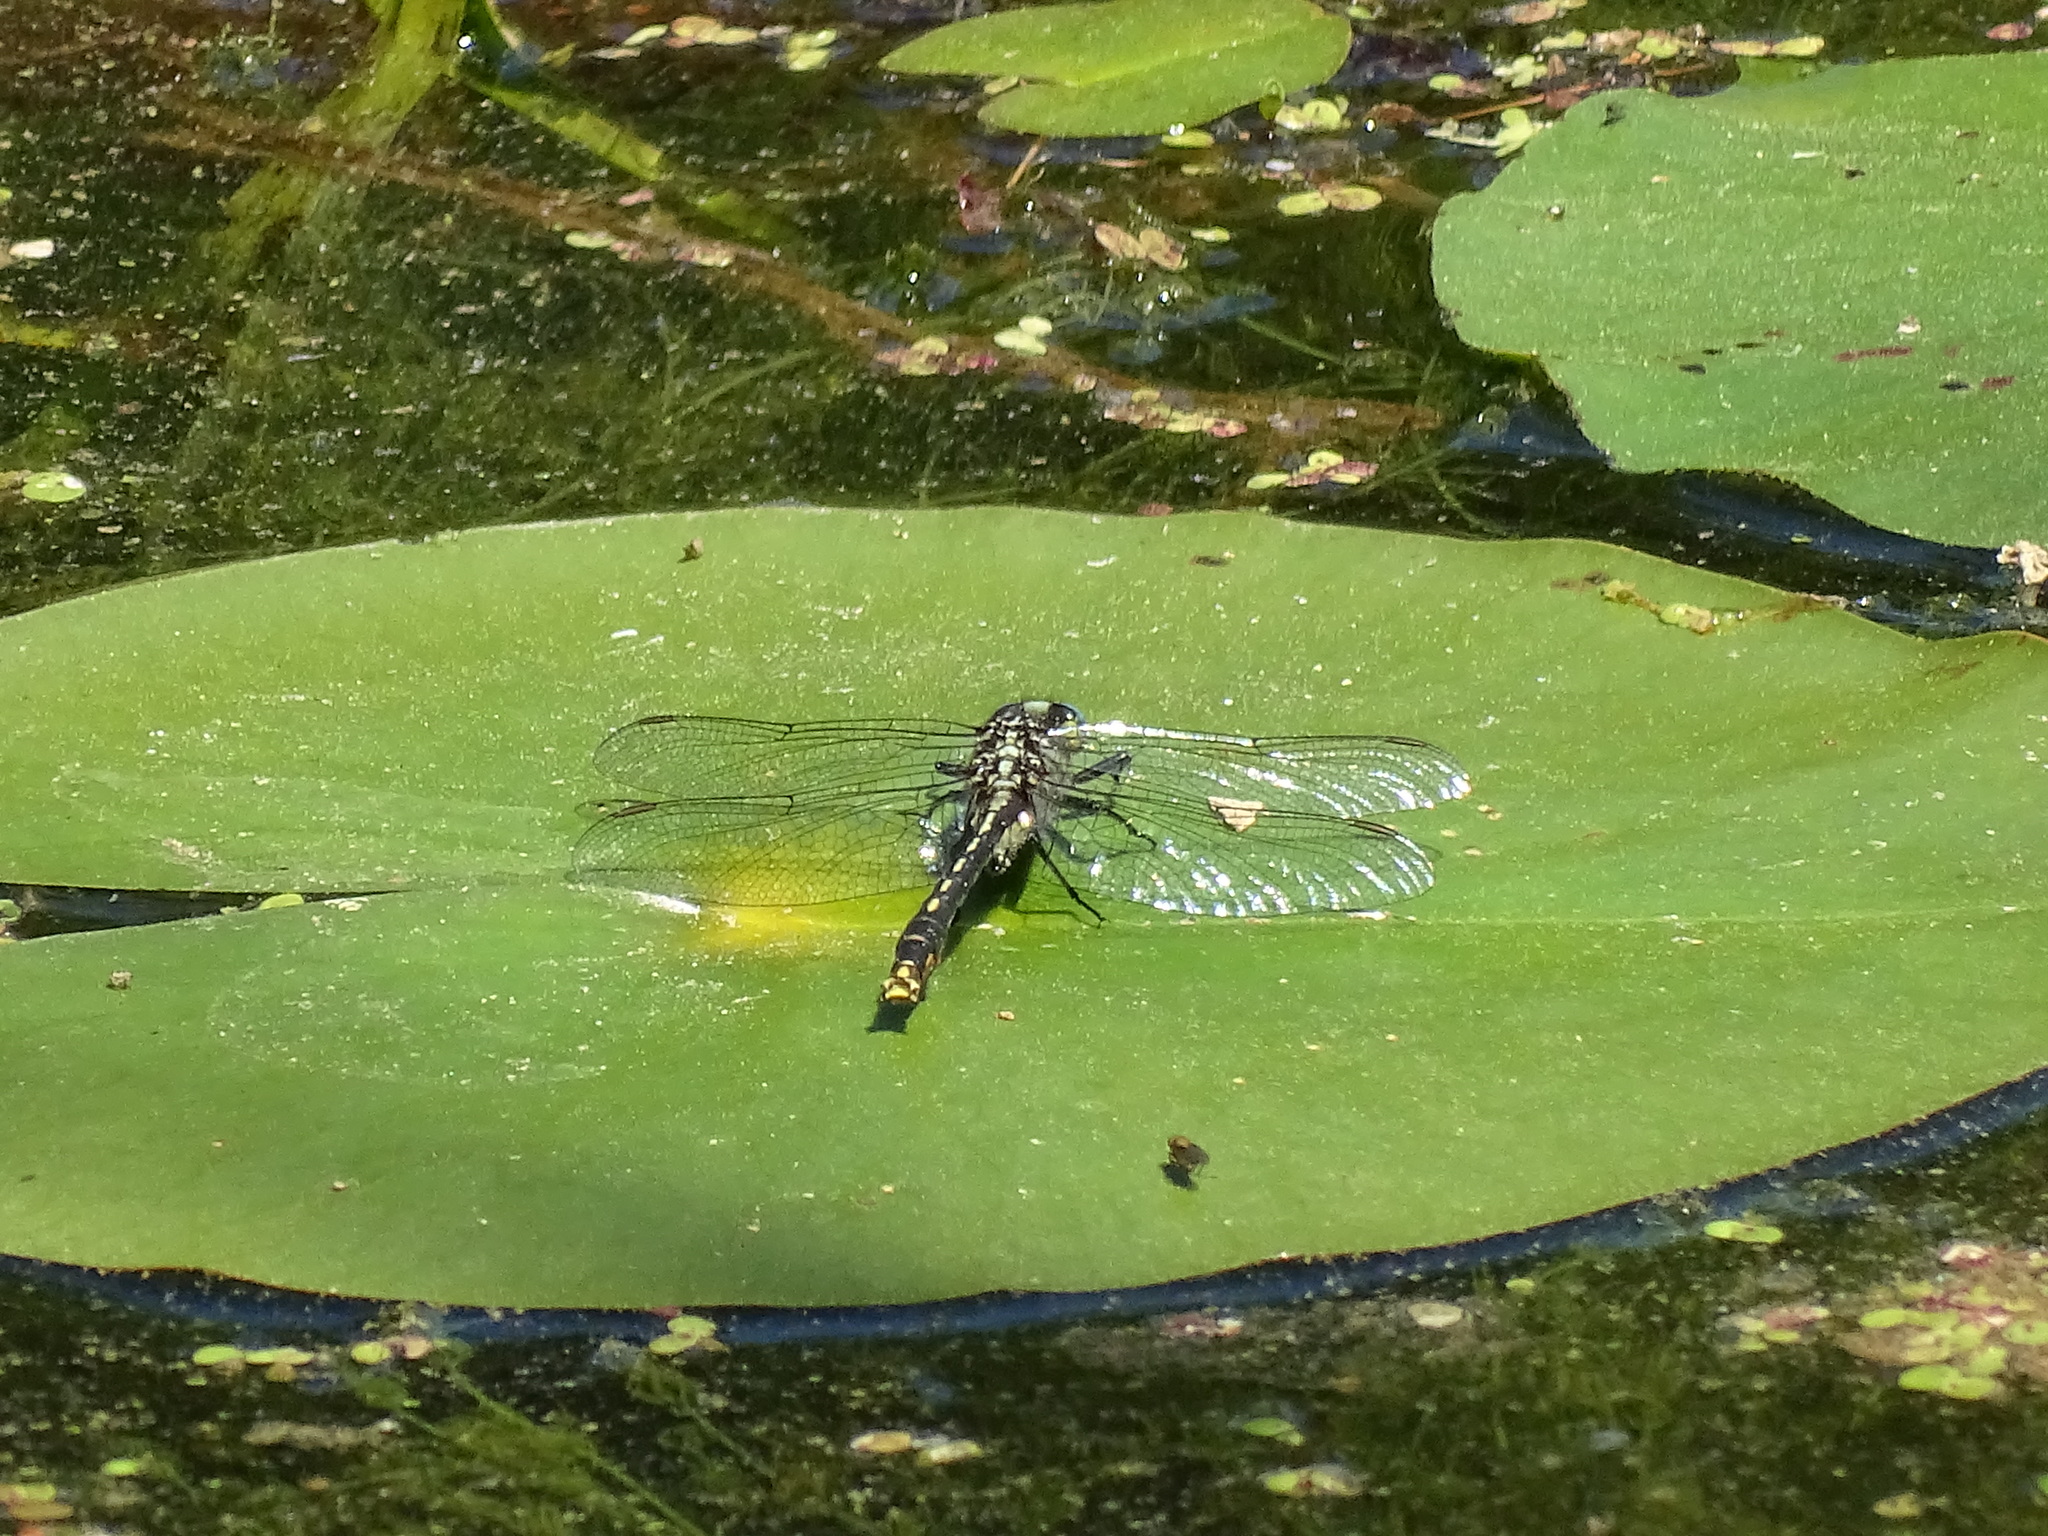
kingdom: Animalia
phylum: Arthropoda
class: Insecta
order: Odonata
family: Gomphidae
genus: Arigomphus
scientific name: Arigomphus furcifer
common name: Lilypad clubtail
